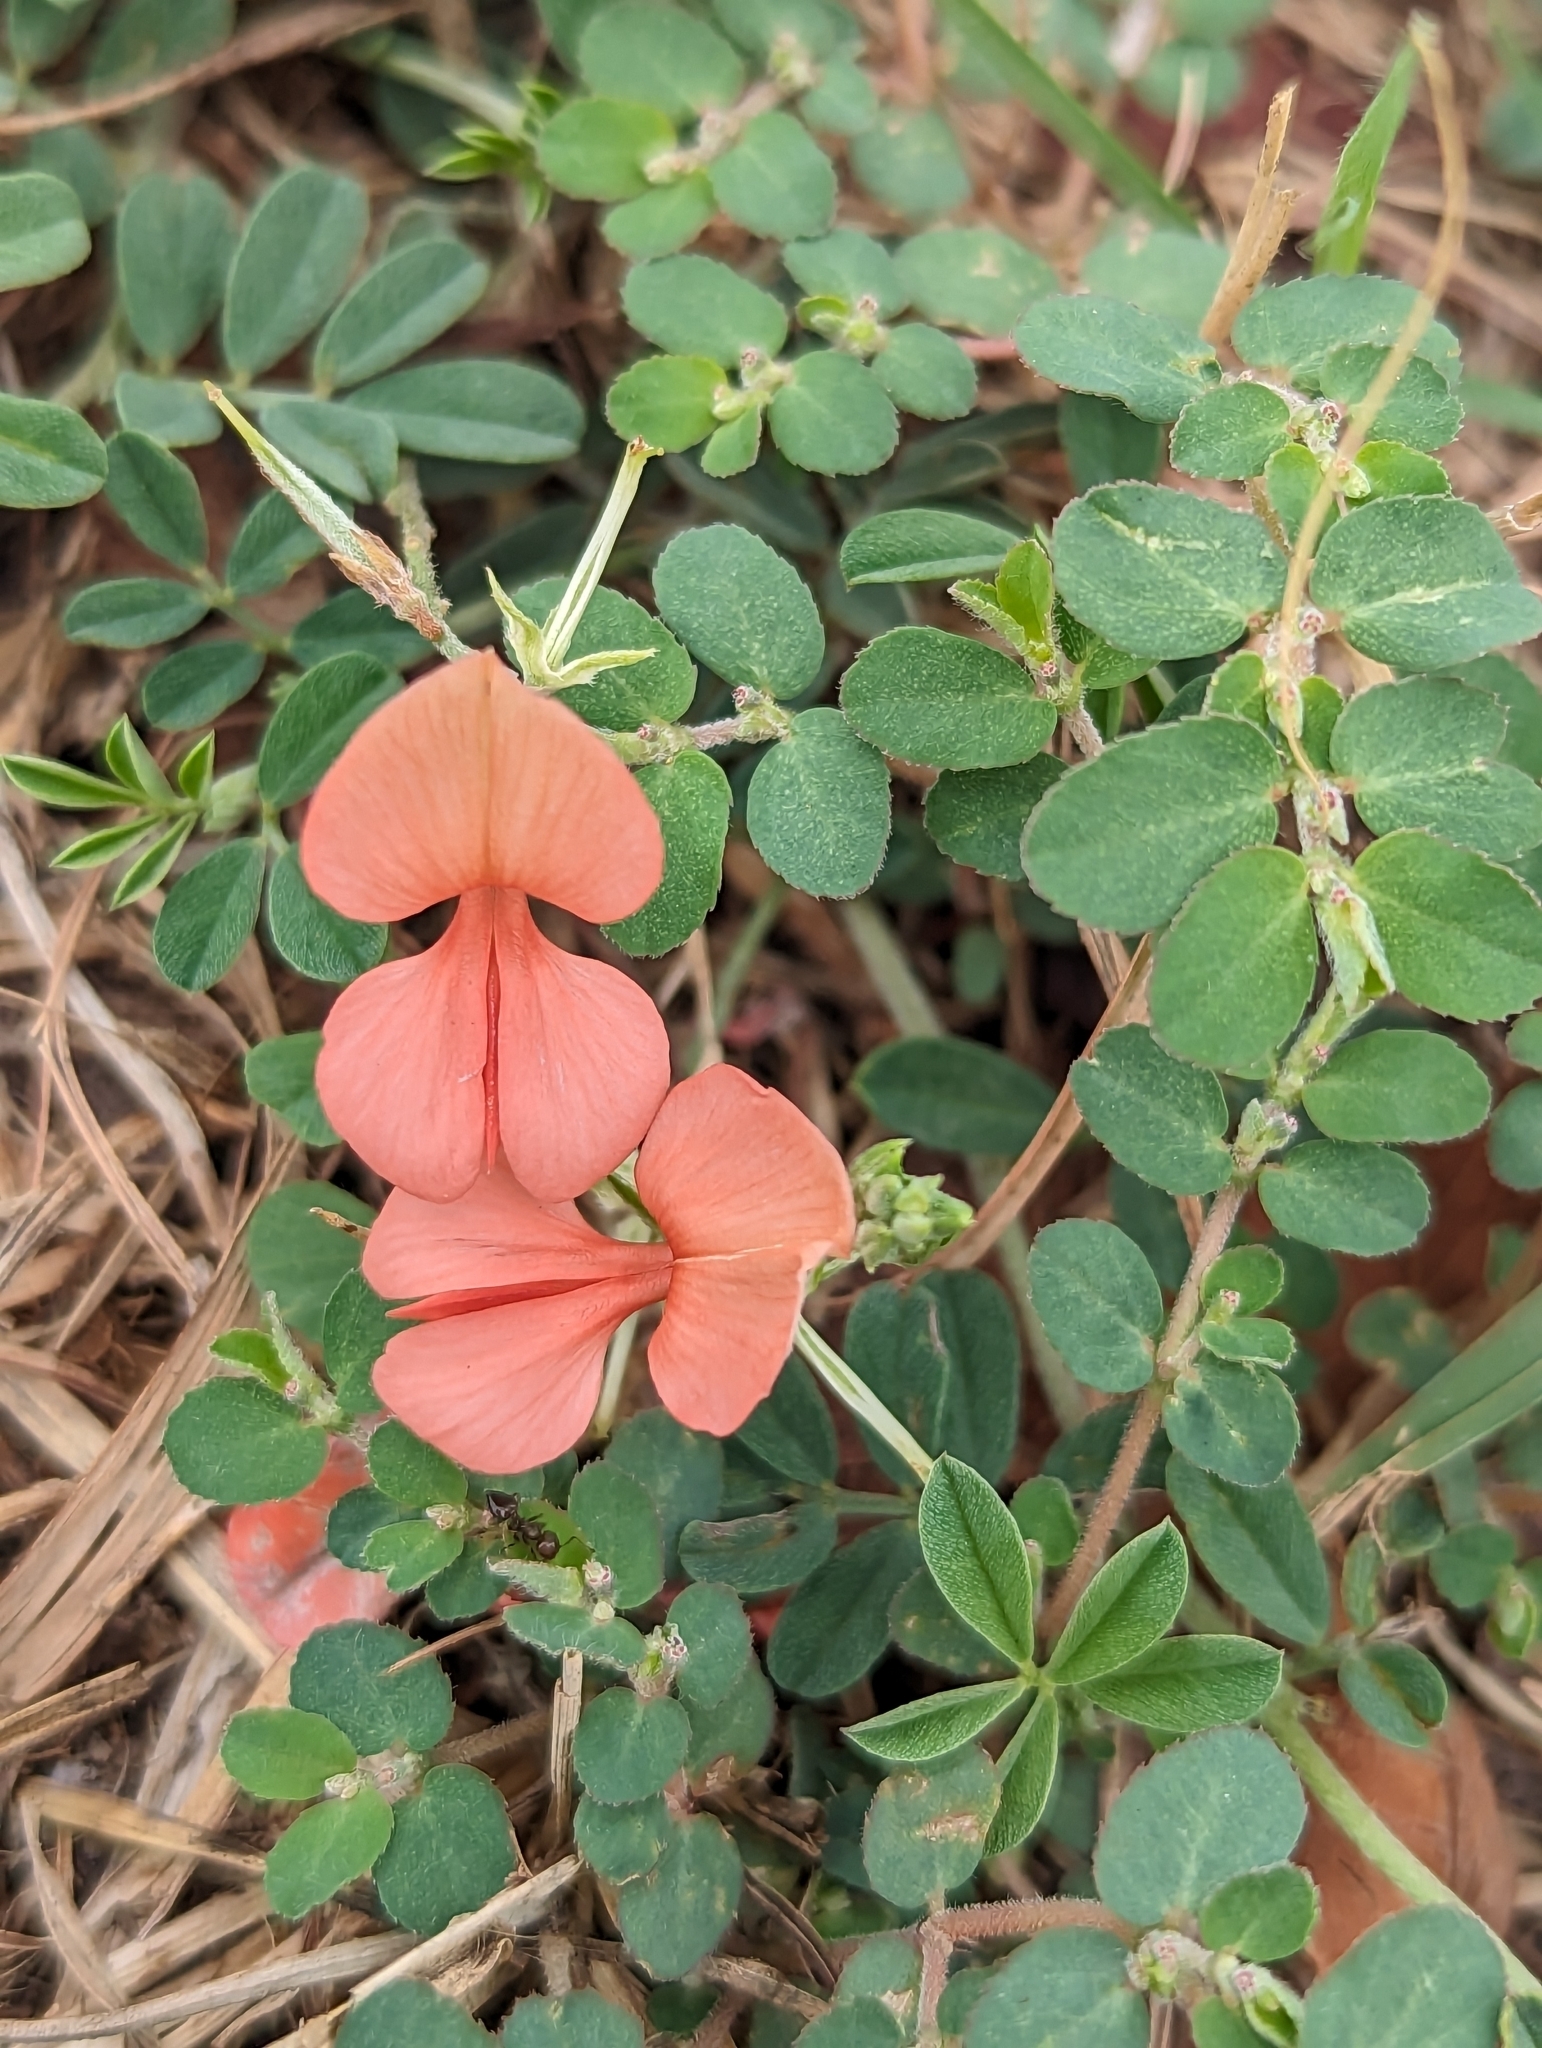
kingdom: Plantae
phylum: Tracheophyta
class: Magnoliopsida
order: Fabales
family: Fabaceae
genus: Indigofera
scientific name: Indigofera miniata
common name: Coast indigo
